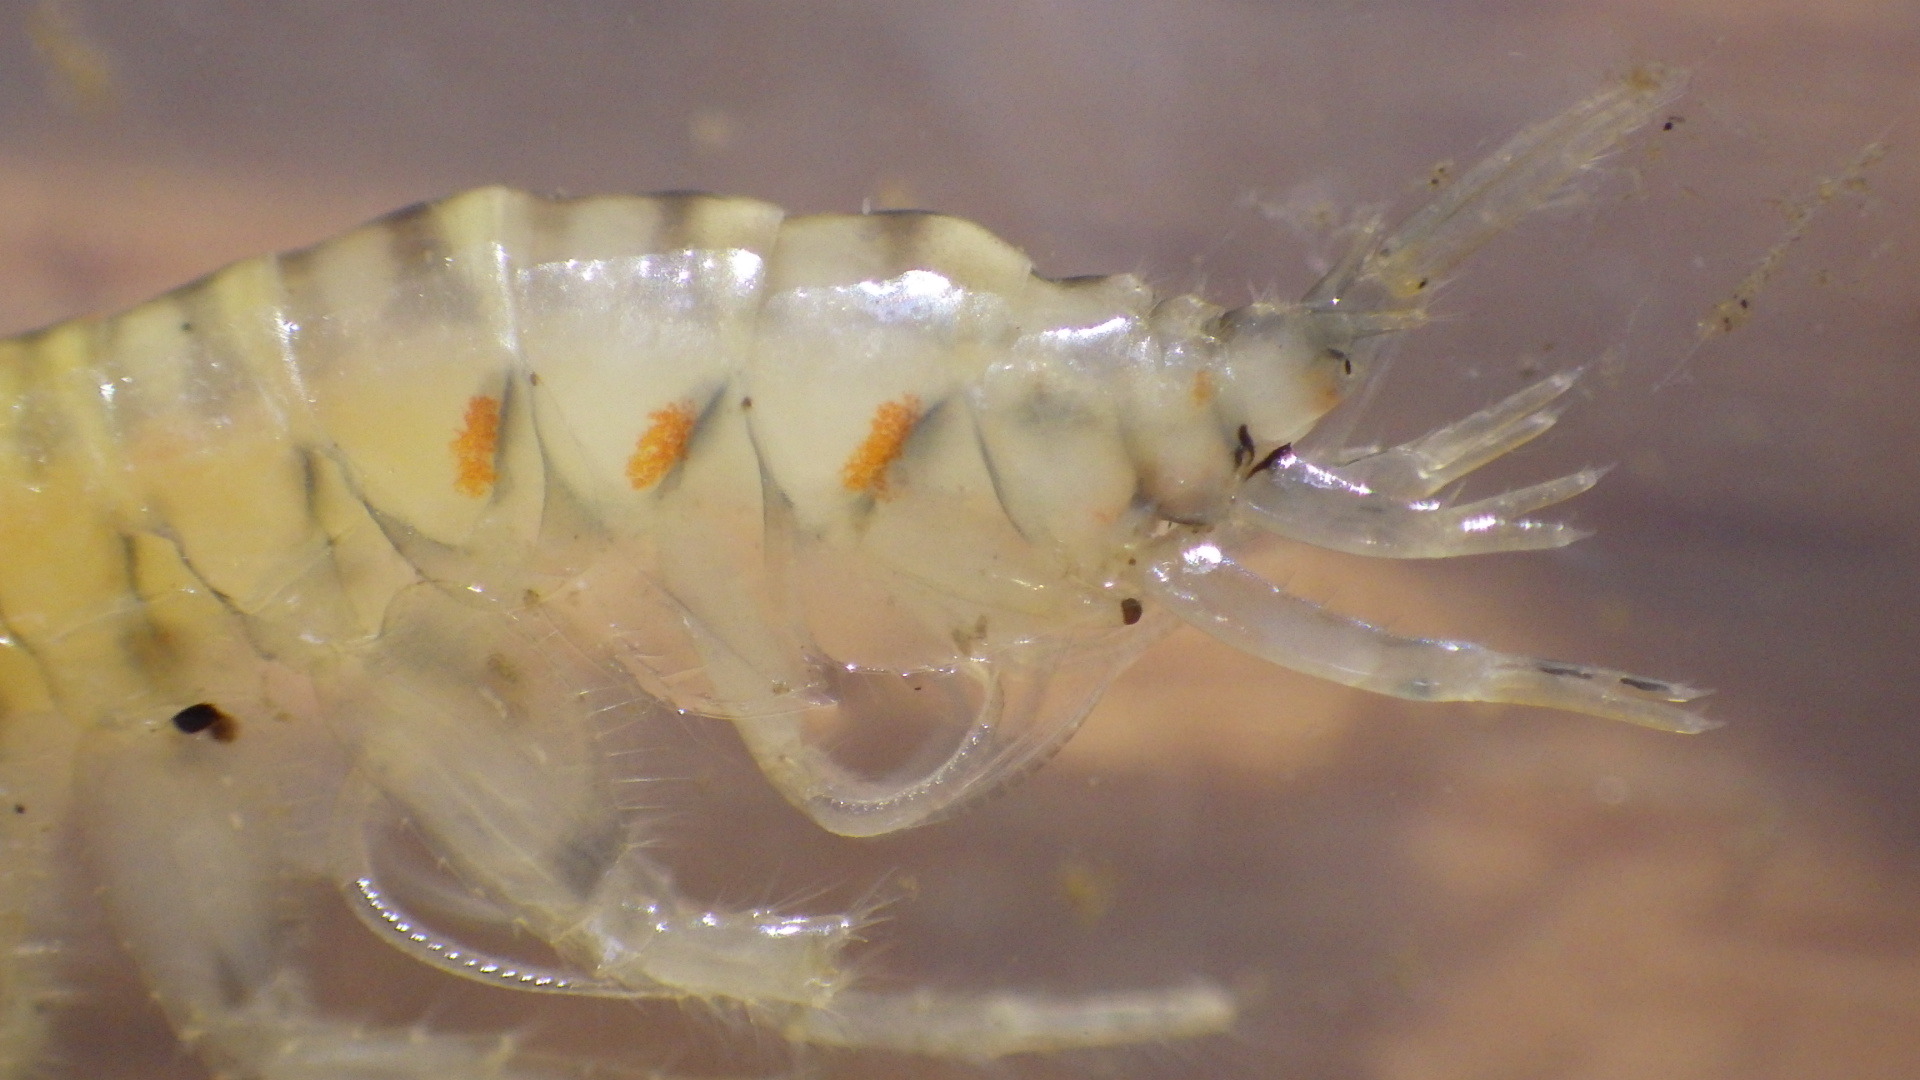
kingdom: Animalia
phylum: Arthropoda
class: Malacostraca
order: Amphipoda
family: Gammaridae
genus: Gammarus
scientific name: Gammarus fasciatus
